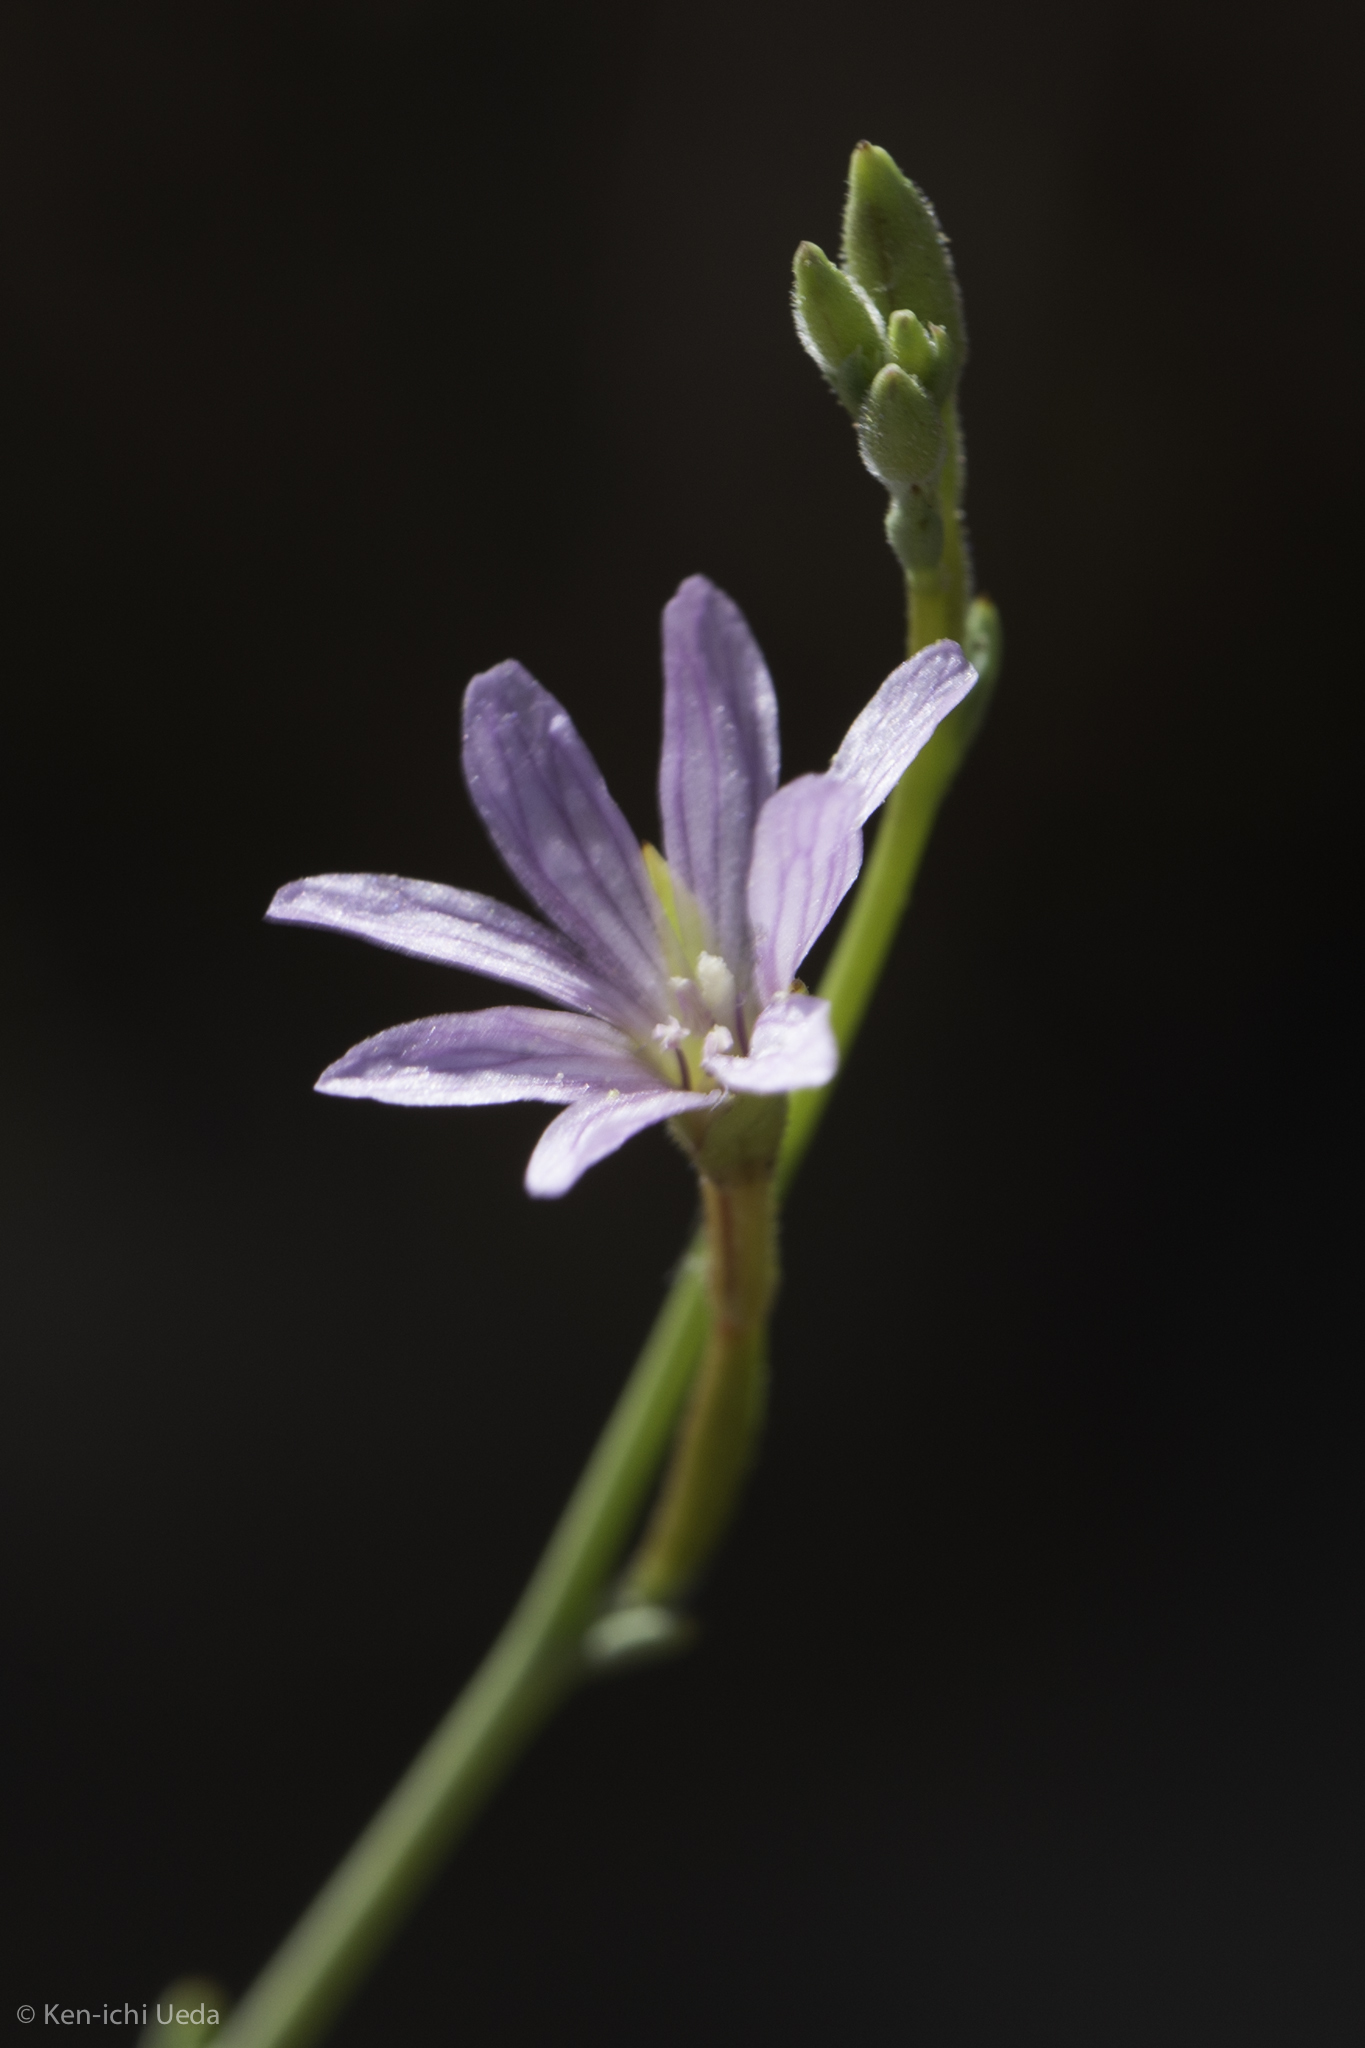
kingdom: Plantae
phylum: Tracheophyta
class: Magnoliopsida
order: Myrtales
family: Onagraceae
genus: Epilobium
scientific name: Epilobium brachycarpum
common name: Annual willowherb
